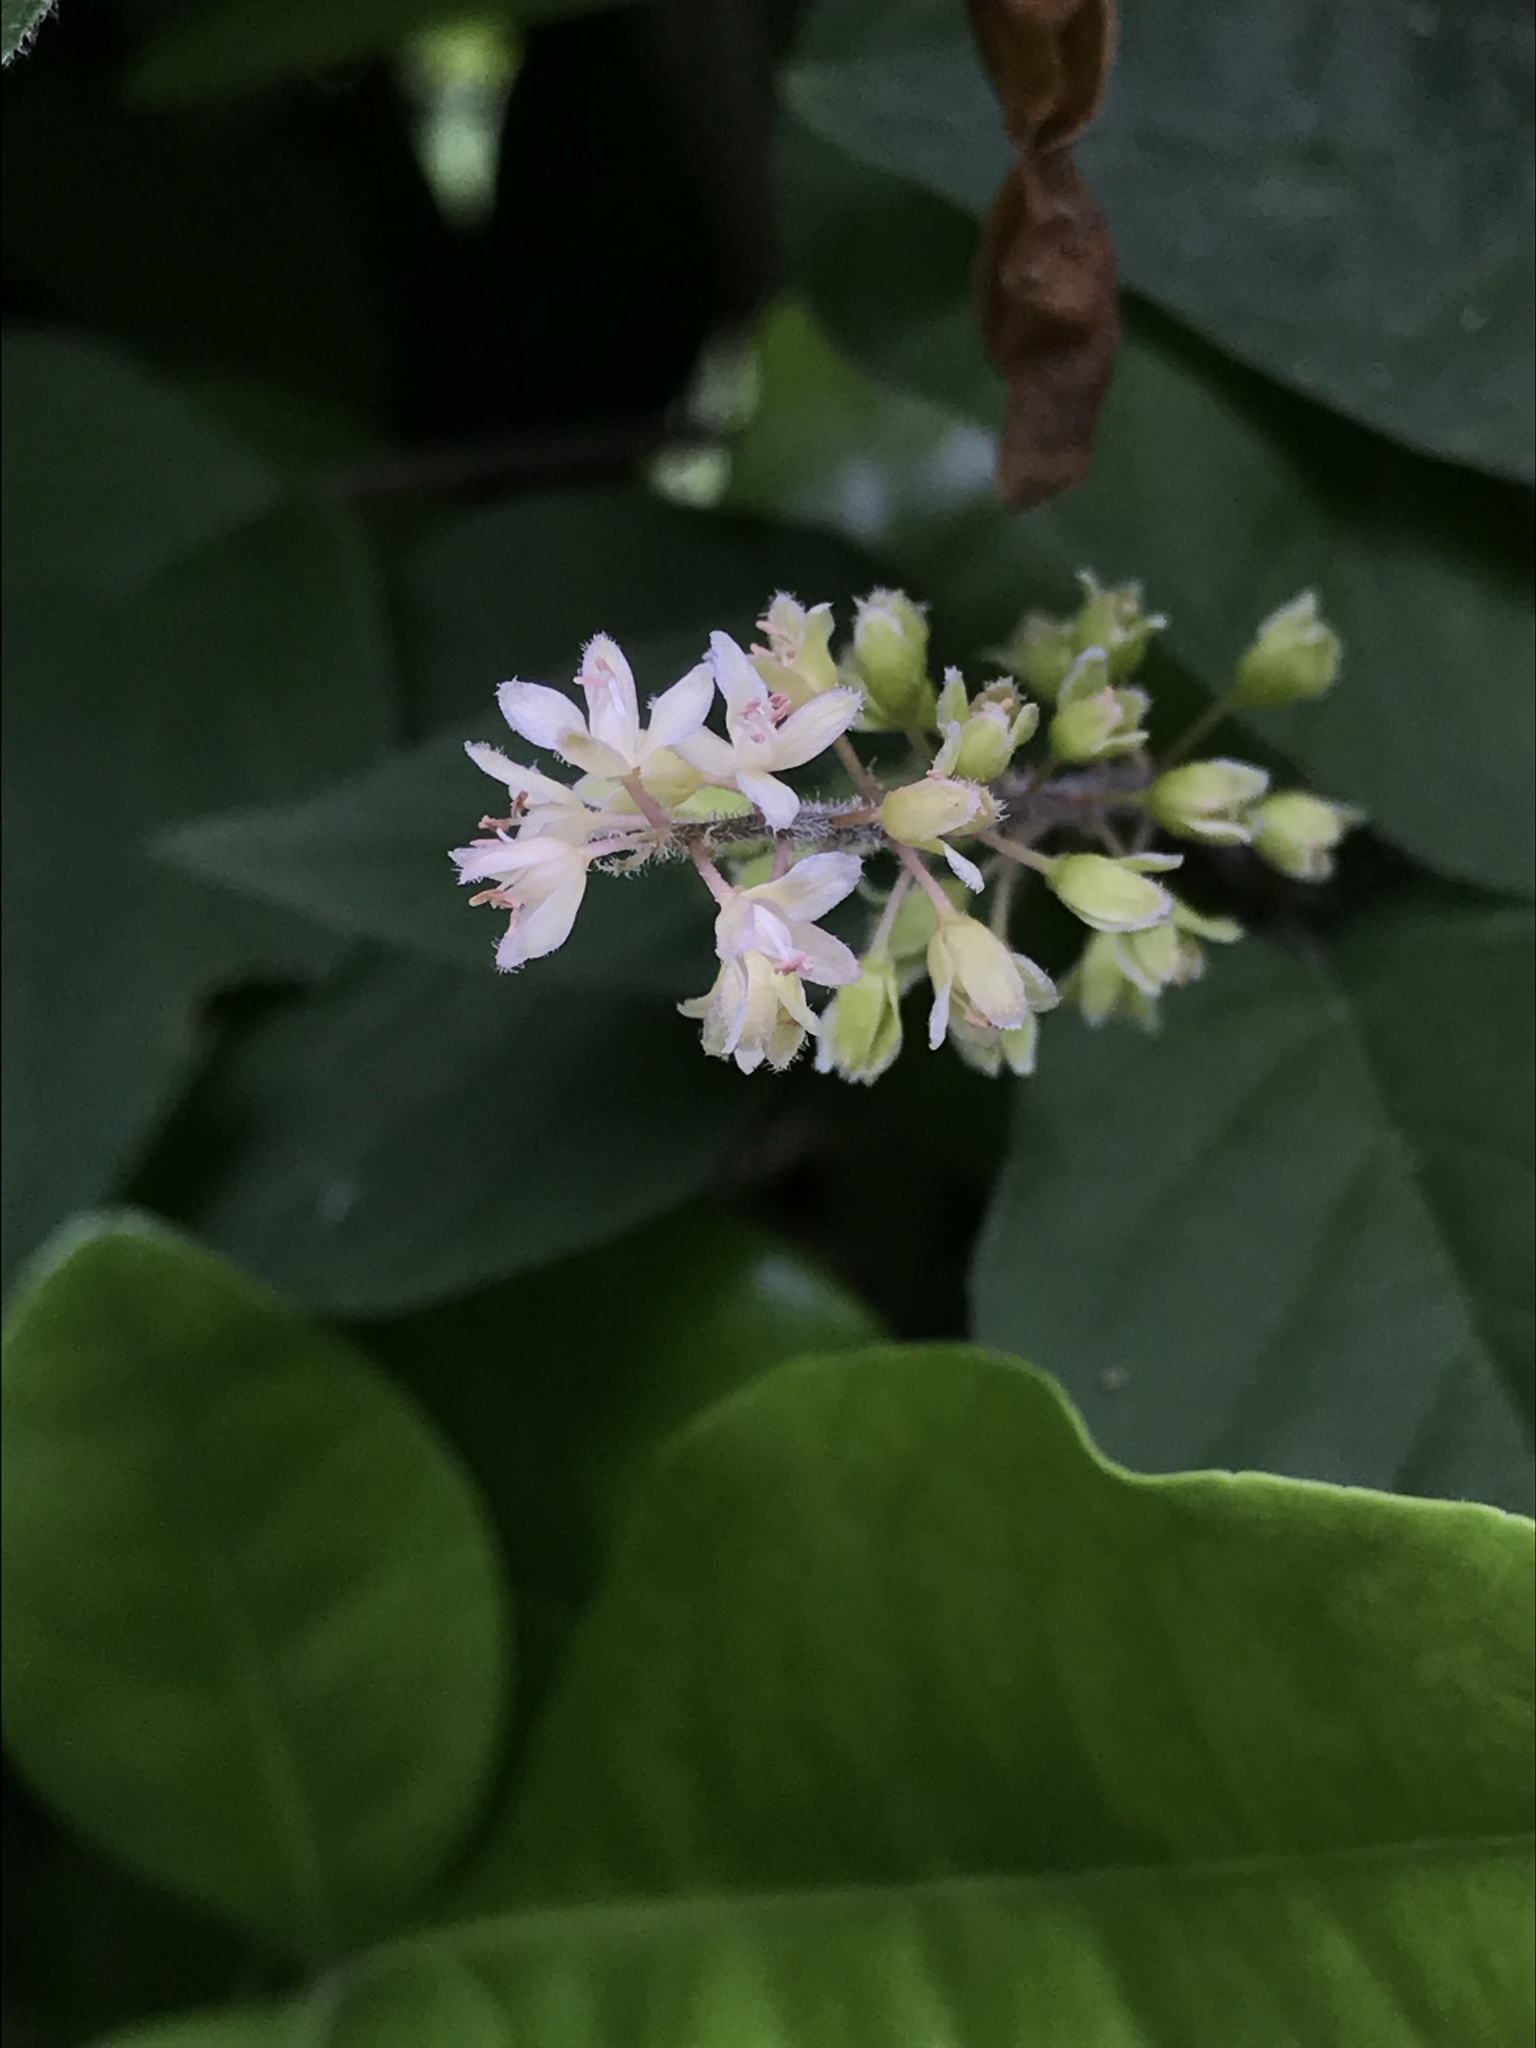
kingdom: Plantae
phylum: Tracheophyta
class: Magnoliopsida
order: Caryophyllales
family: Phytolaccaceae
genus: Rivina
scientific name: Rivina humilis
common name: Rougeplant
